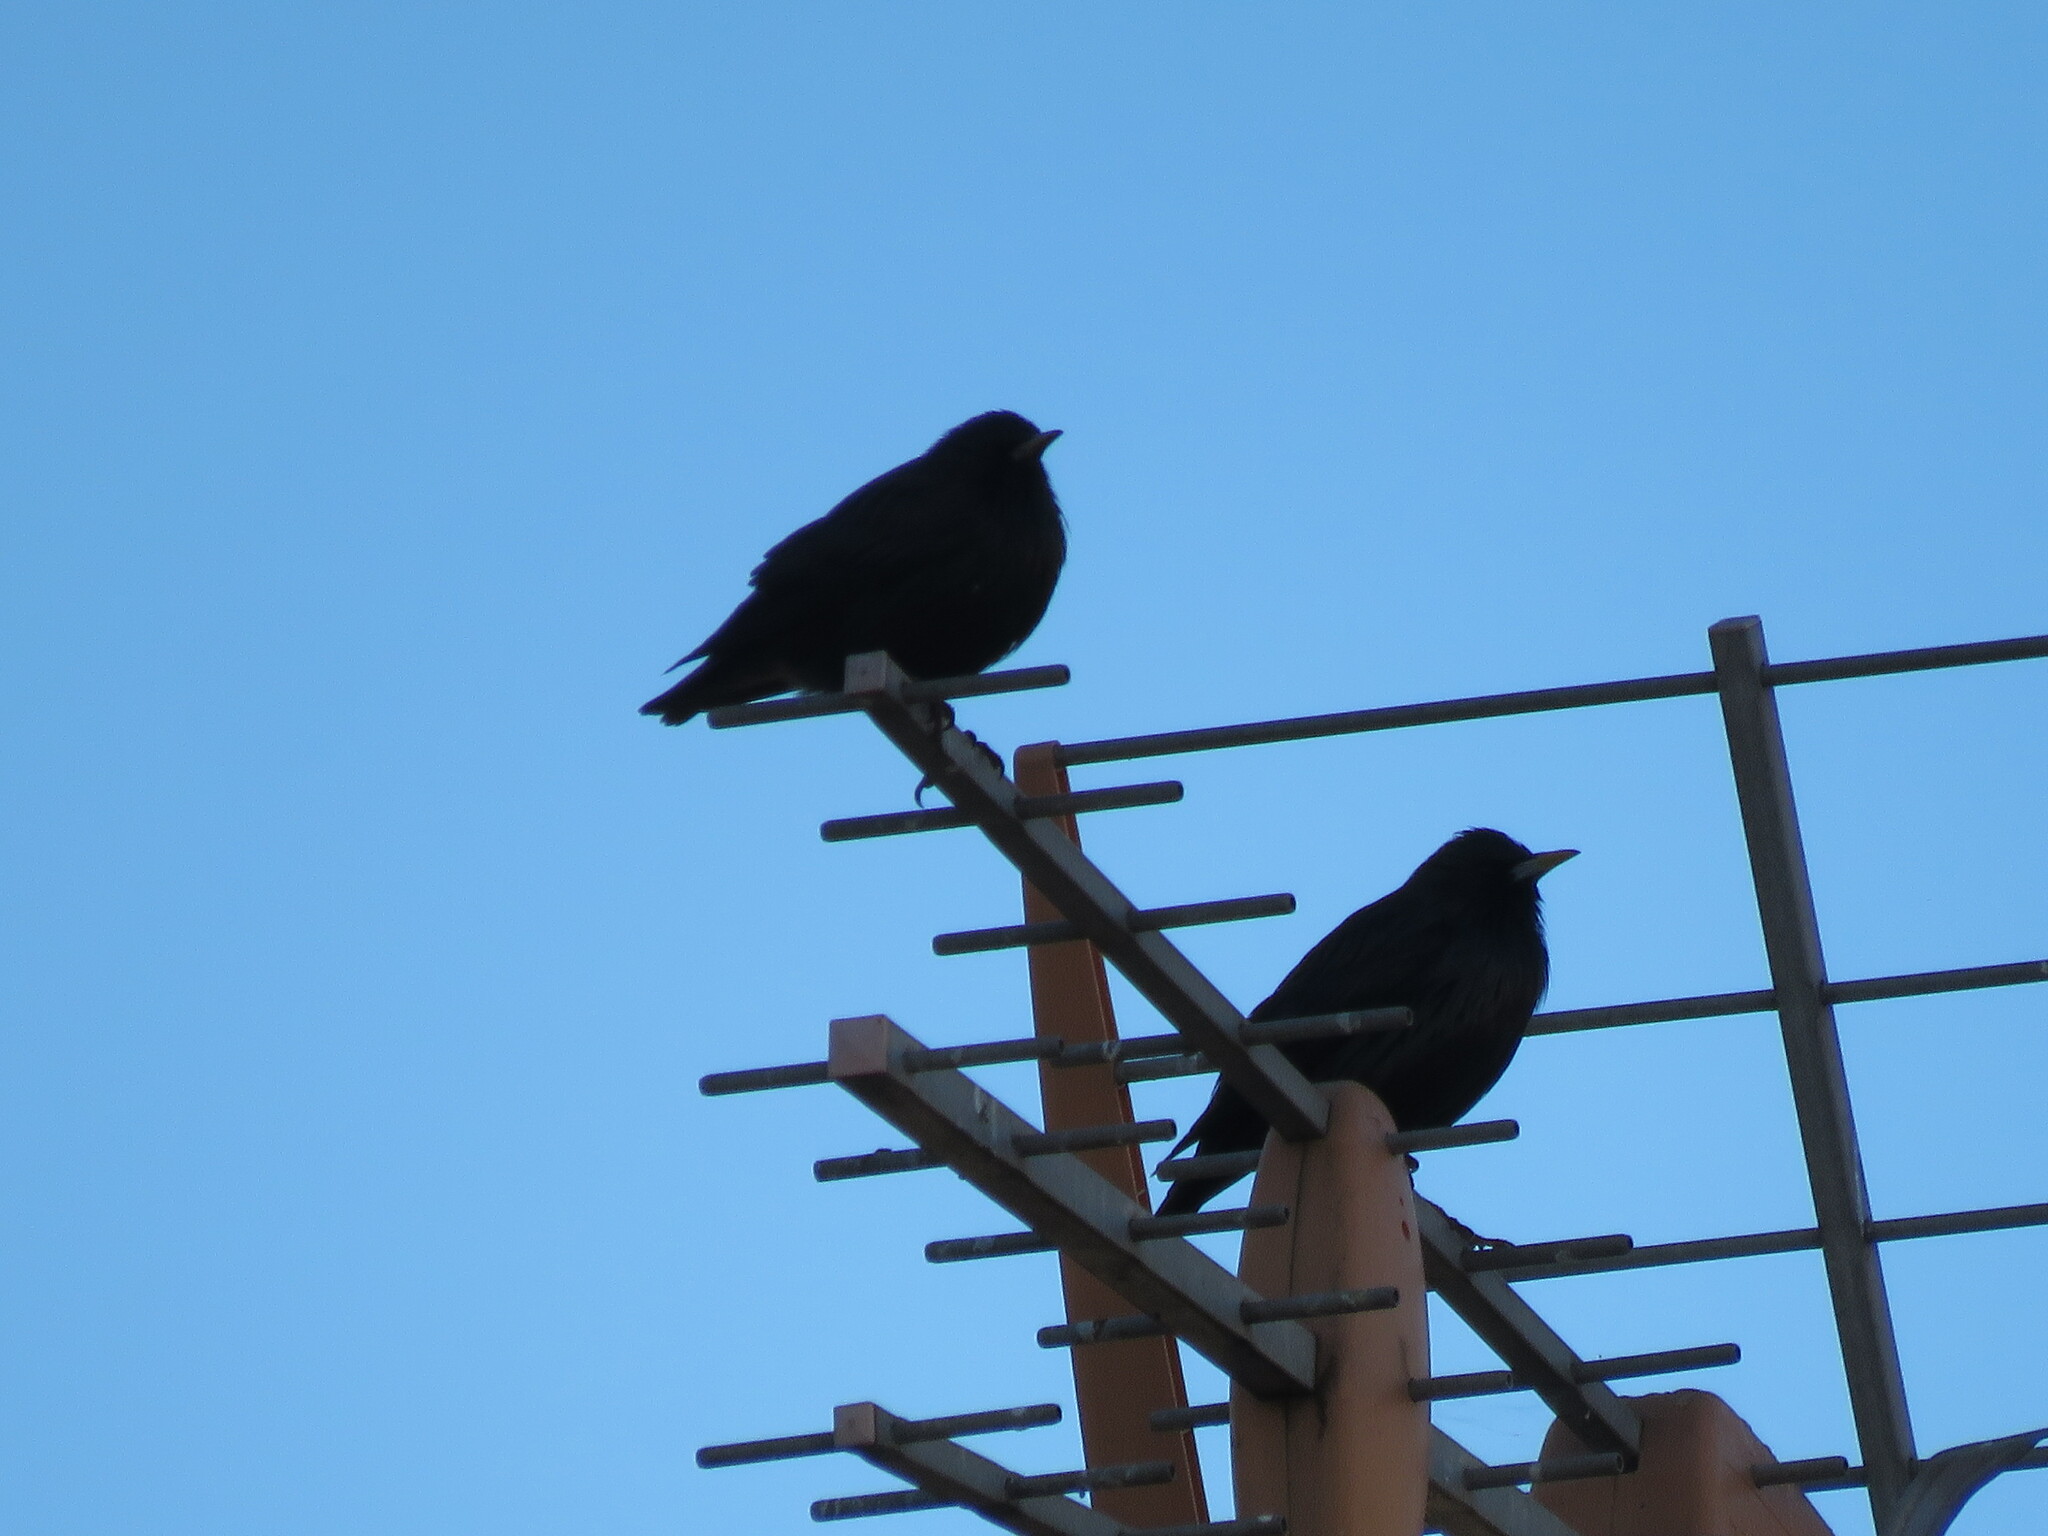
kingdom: Animalia
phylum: Chordata
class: Aves
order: Passeriformes
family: Sturnidae
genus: Sturnus
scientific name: Sturnus unicolor
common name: Spotless starling
